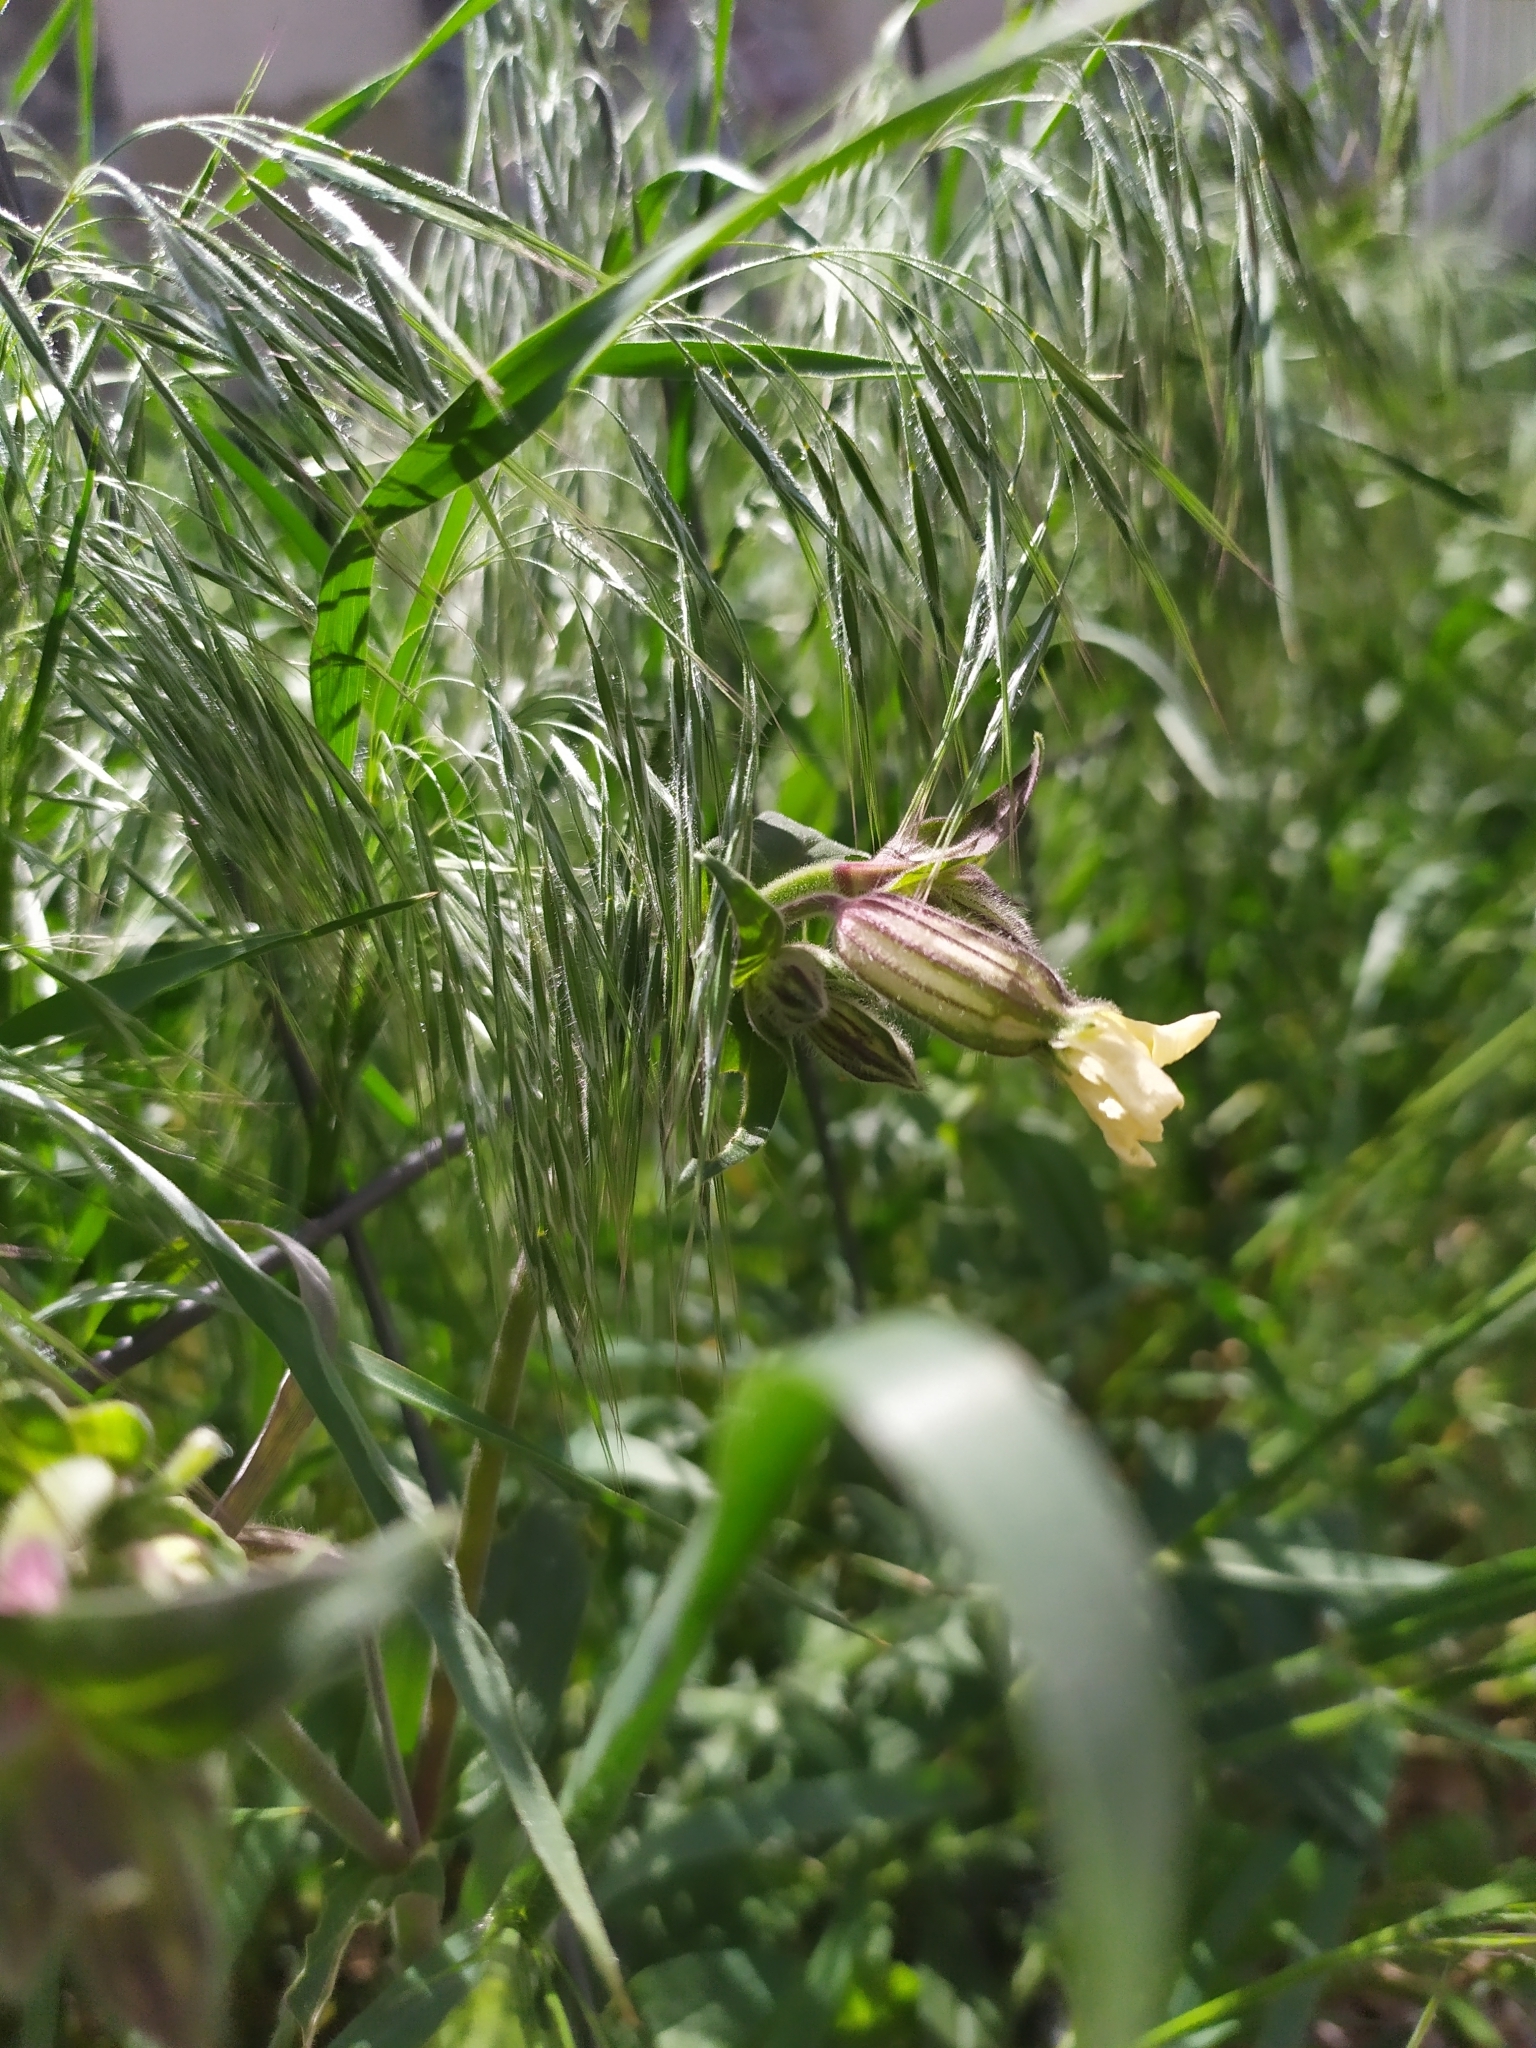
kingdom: Plantae
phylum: Tracheophyta
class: Magnoliopsida
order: Caryophyllales
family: Caryophyllaceae
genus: Silene
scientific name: Silene latifolia
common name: White campion
